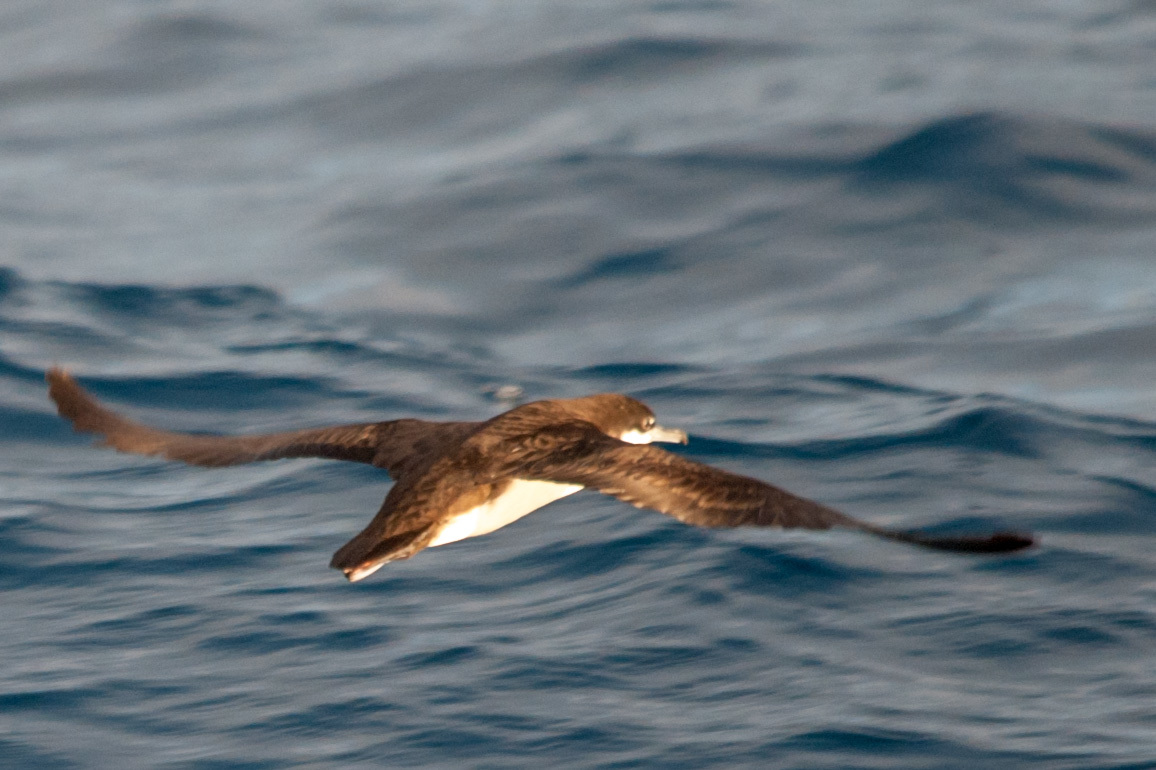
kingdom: Animalia
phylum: Chordata
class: Aves
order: Procellariiformes
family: Procellariidae
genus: Puffinus
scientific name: Puffinus subalaris
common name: Galapagos shearwater
